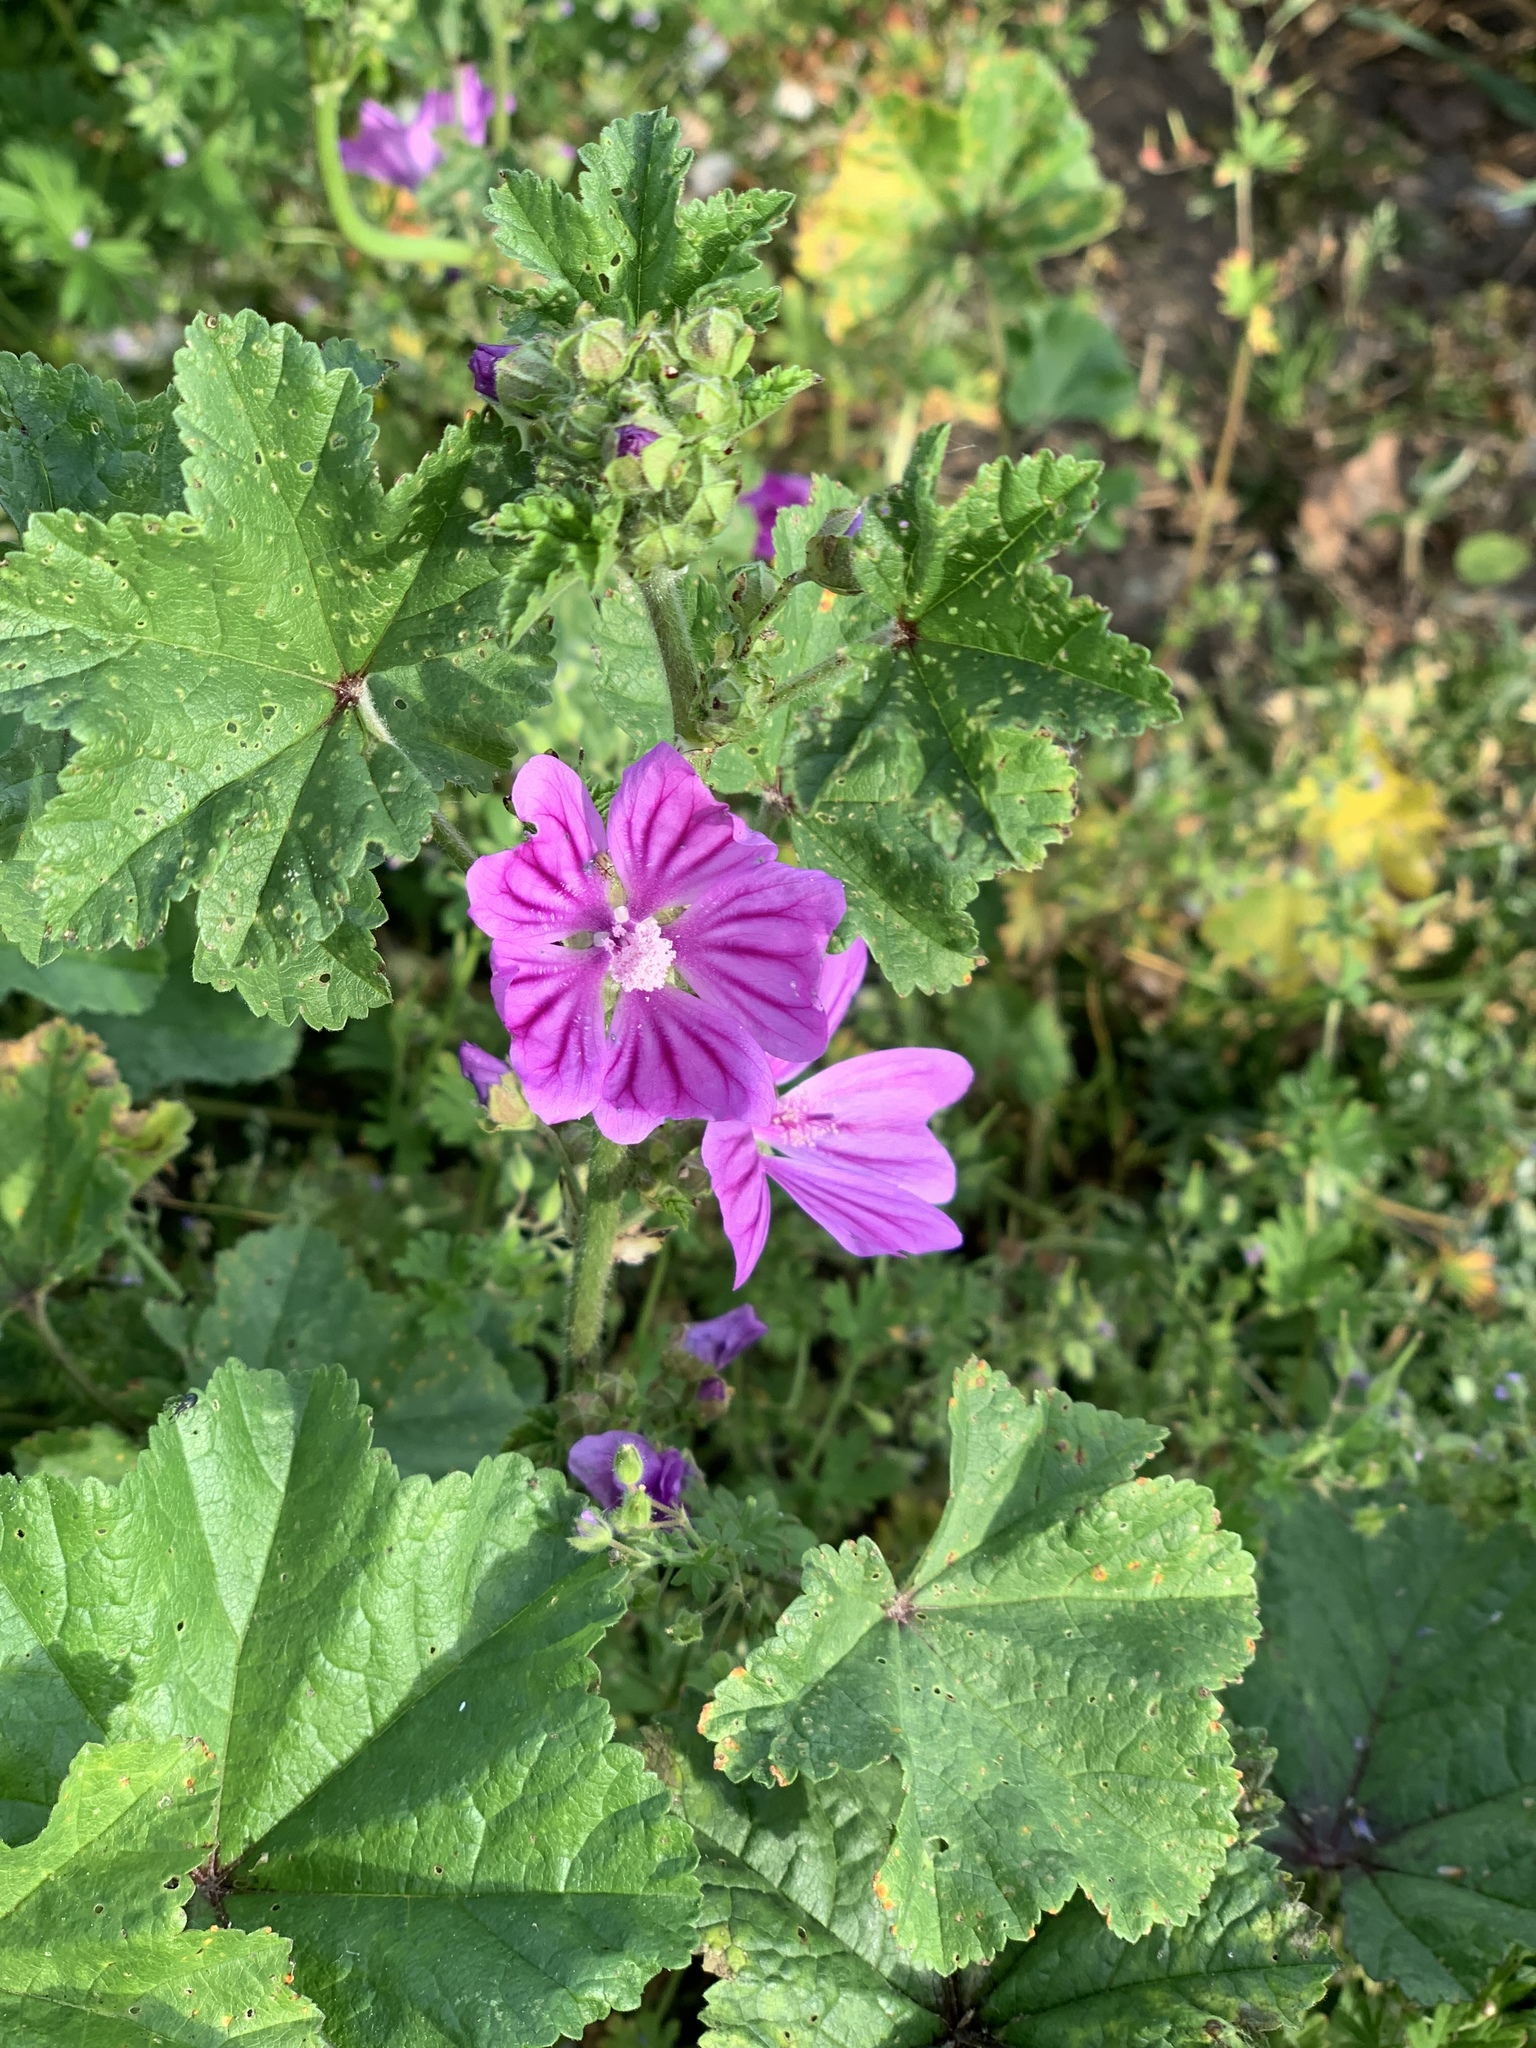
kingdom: Plantae
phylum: Tracheophyta
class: Magnoliopsida
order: Malvales
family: Malvaceae
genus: Malva
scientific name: Malva sylvestris
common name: Common mallow
